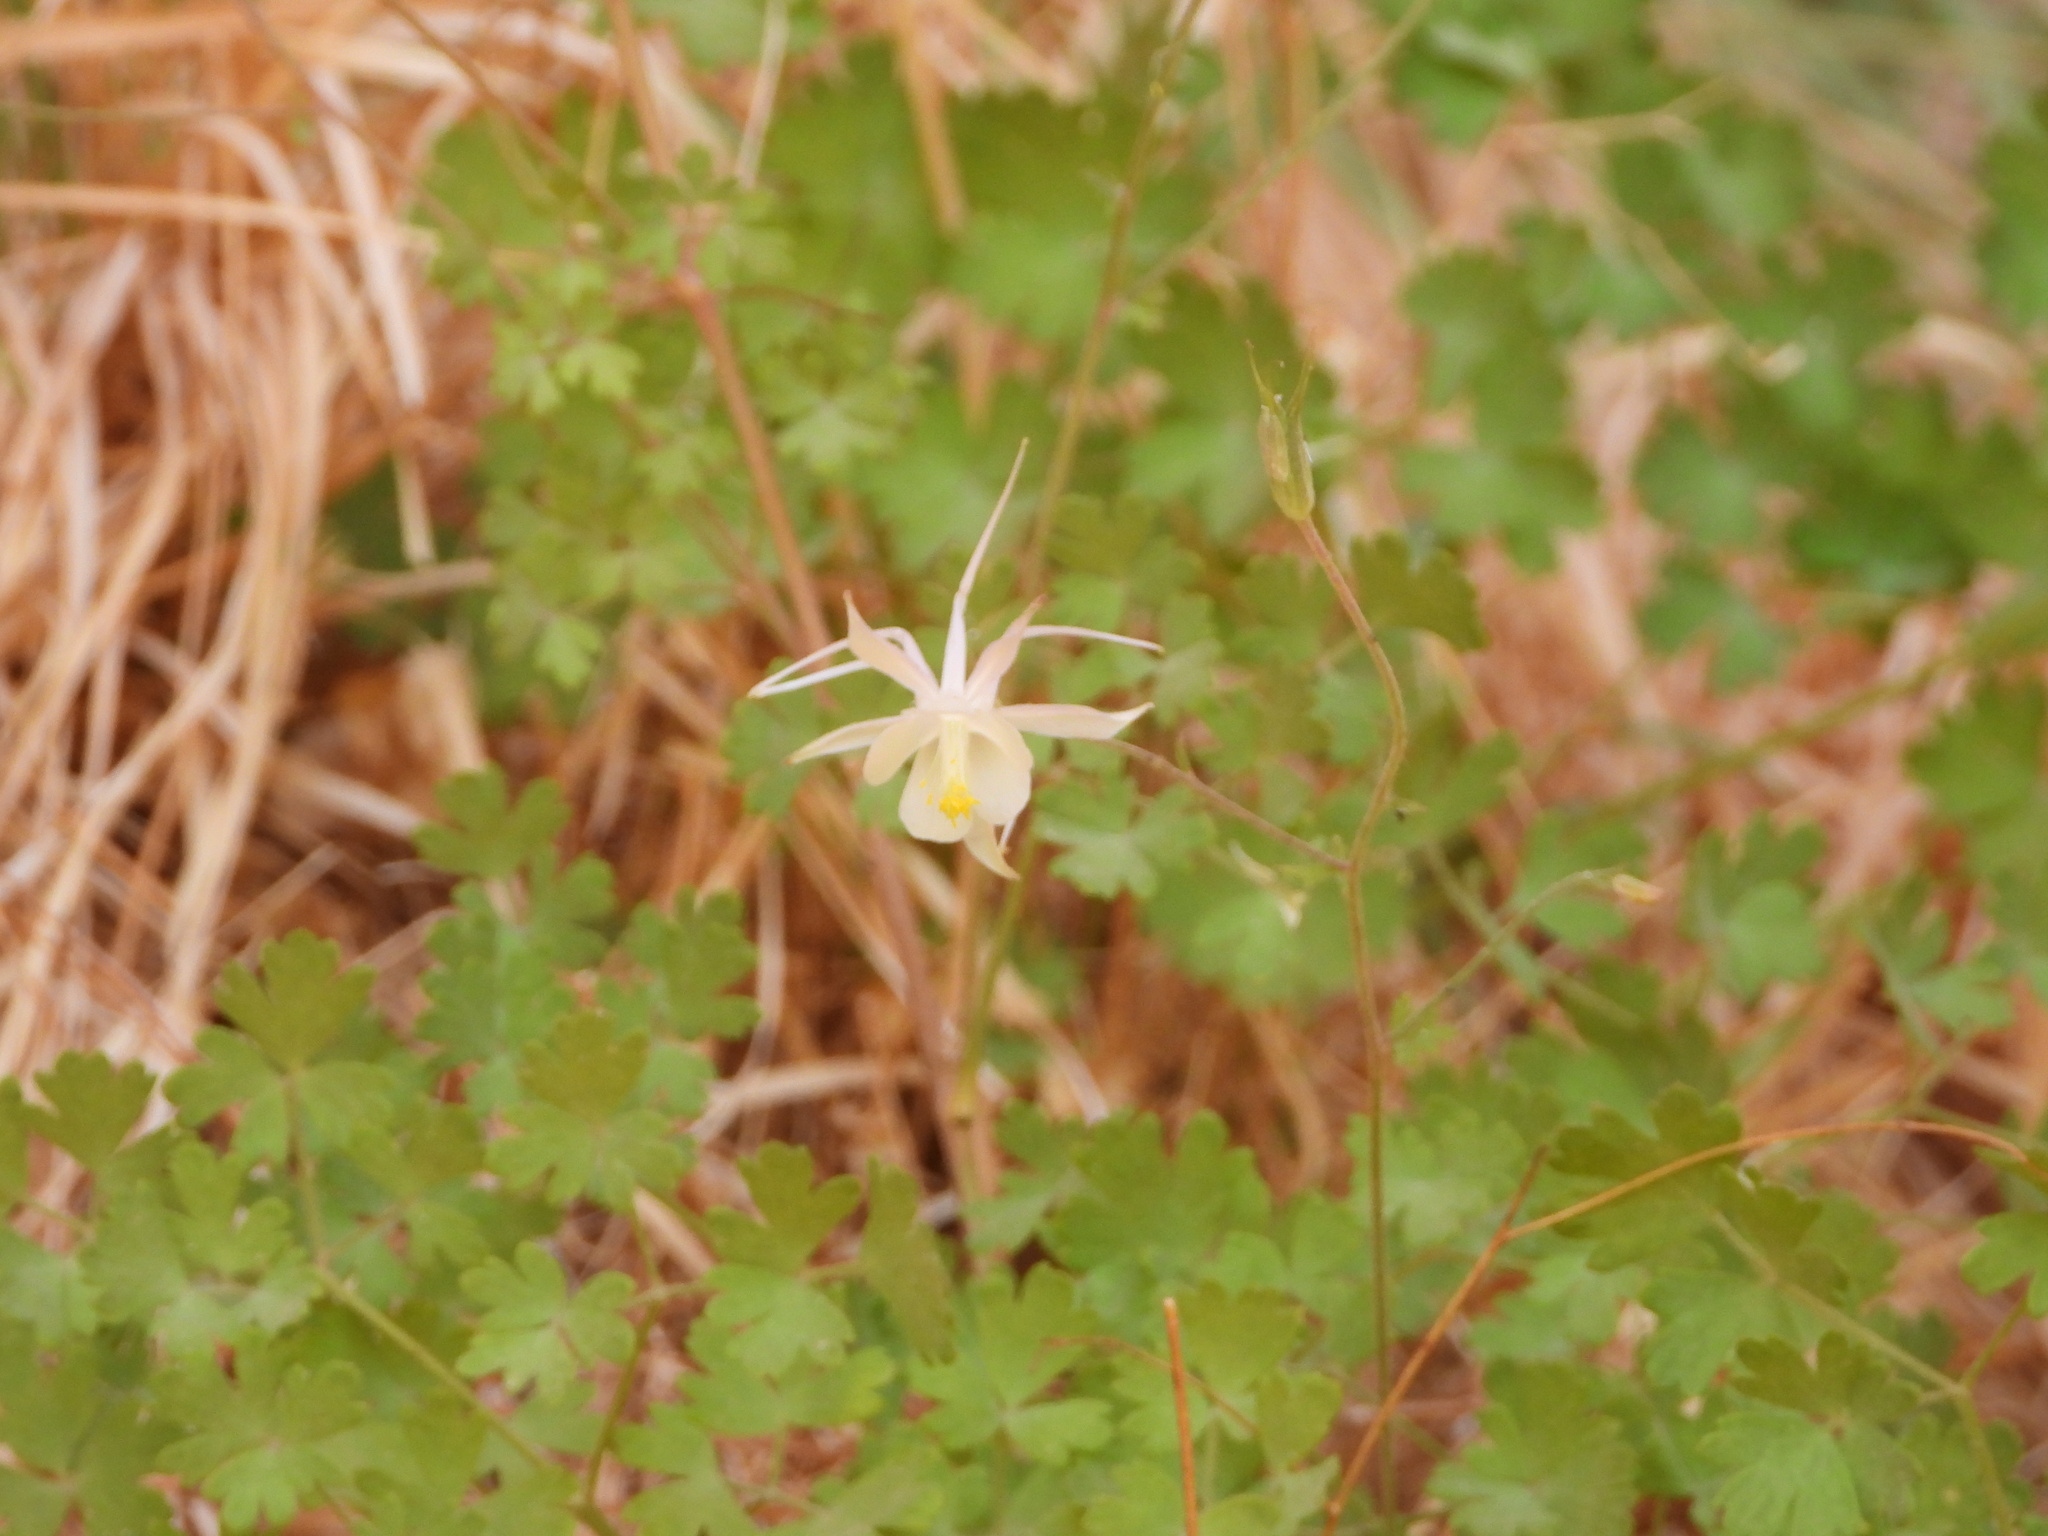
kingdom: Plantae
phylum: Tracheophyta
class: Magnoliopsida
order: Ranunculales
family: Ranunculaceae
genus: Aquilegia
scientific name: Aquilegia micrantha
